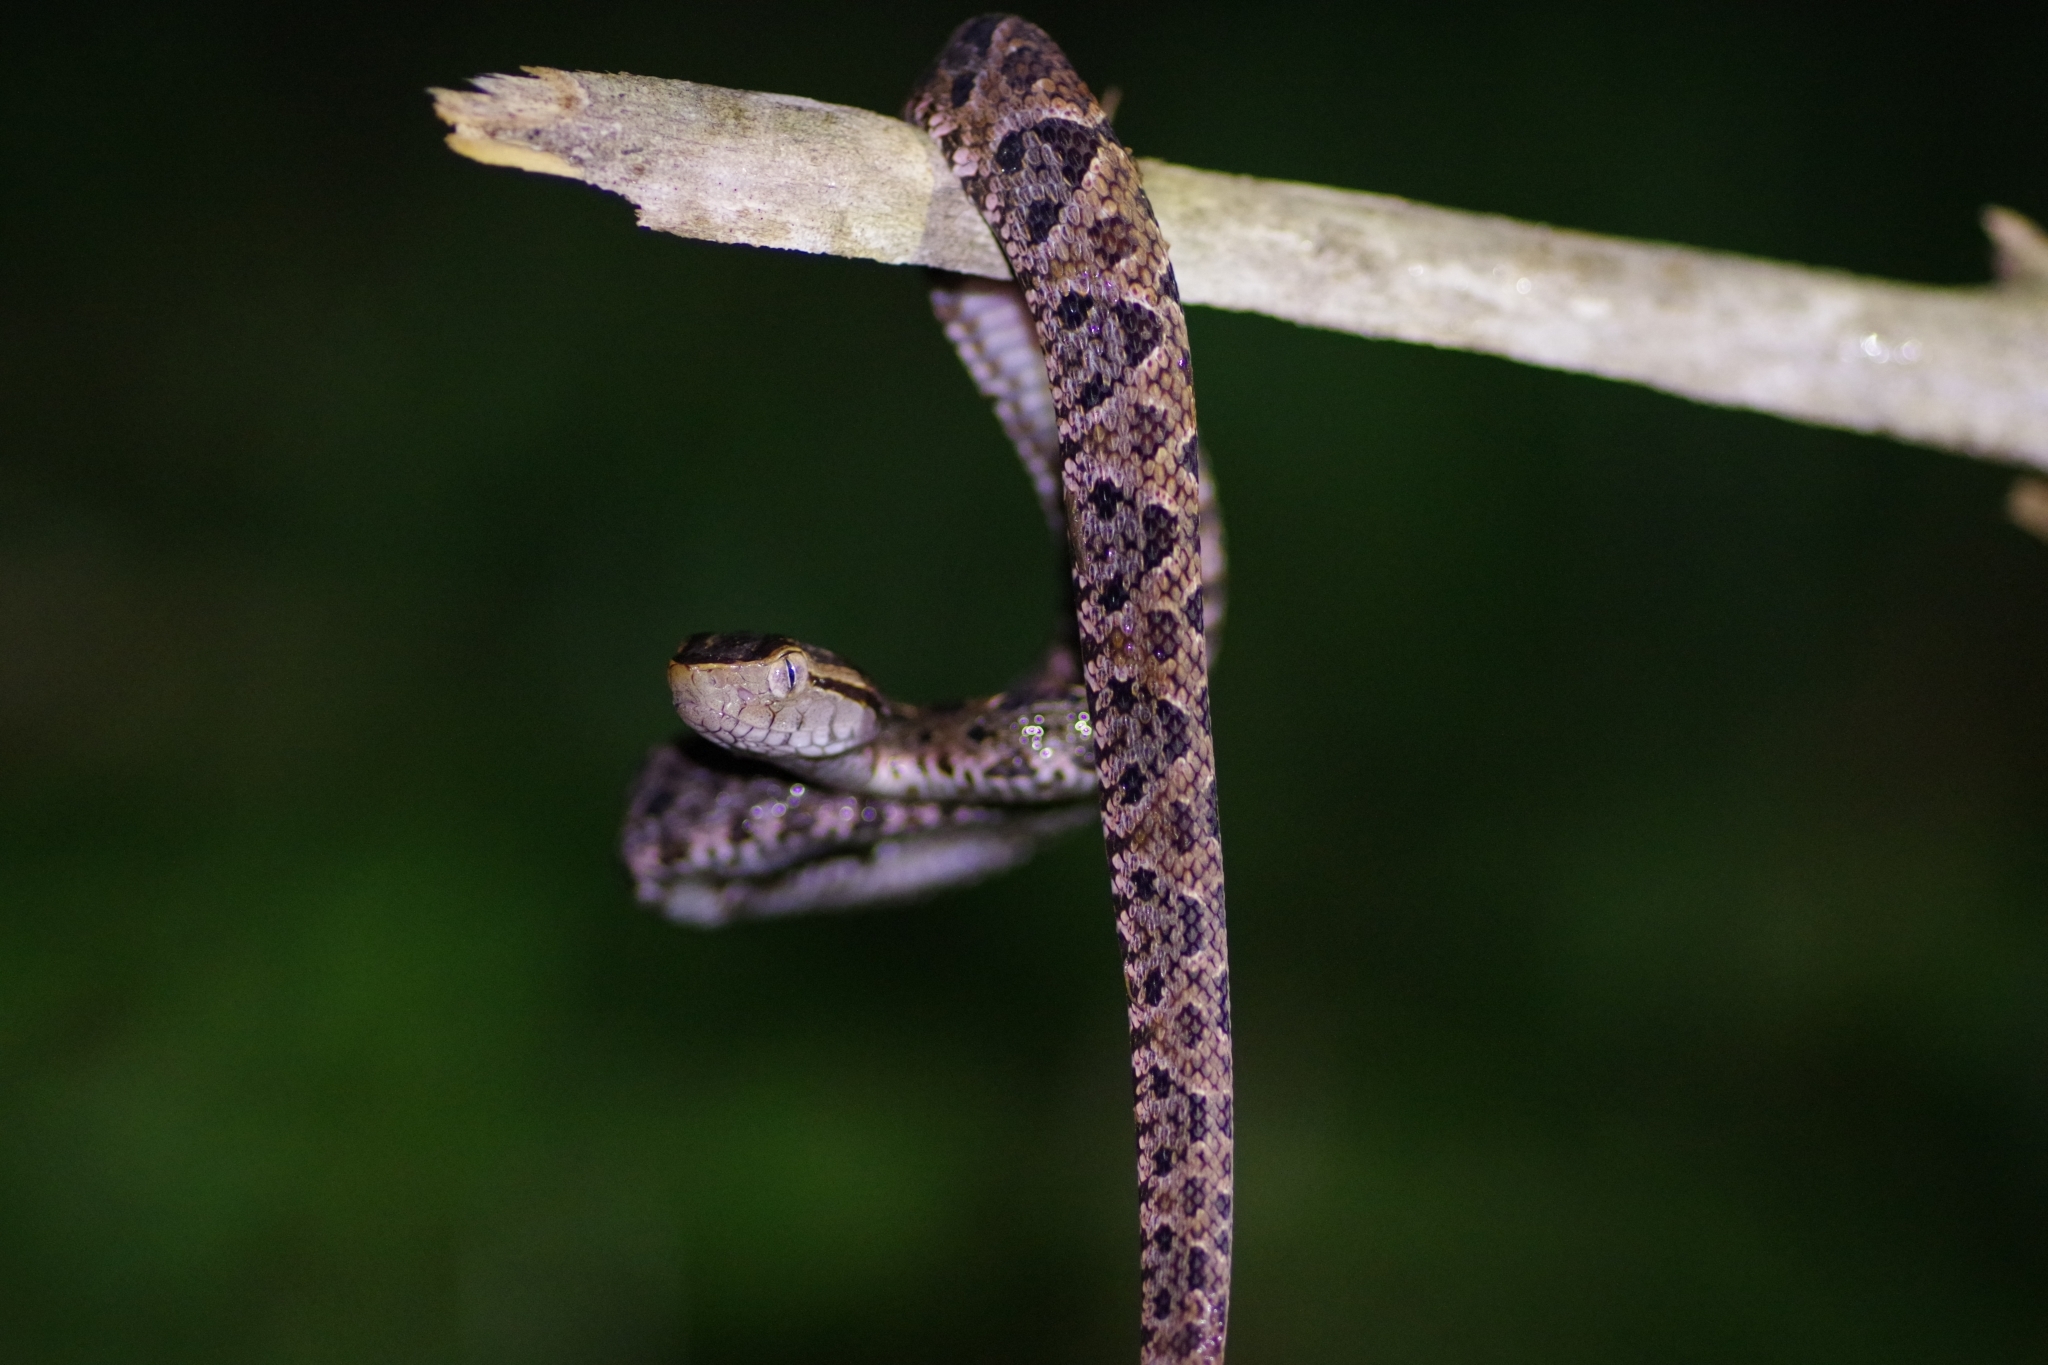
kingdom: Animalia
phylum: Chordata
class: Squamata
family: Viperidae
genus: Bothrops
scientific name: Bothrops asper
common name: Terciopelo
